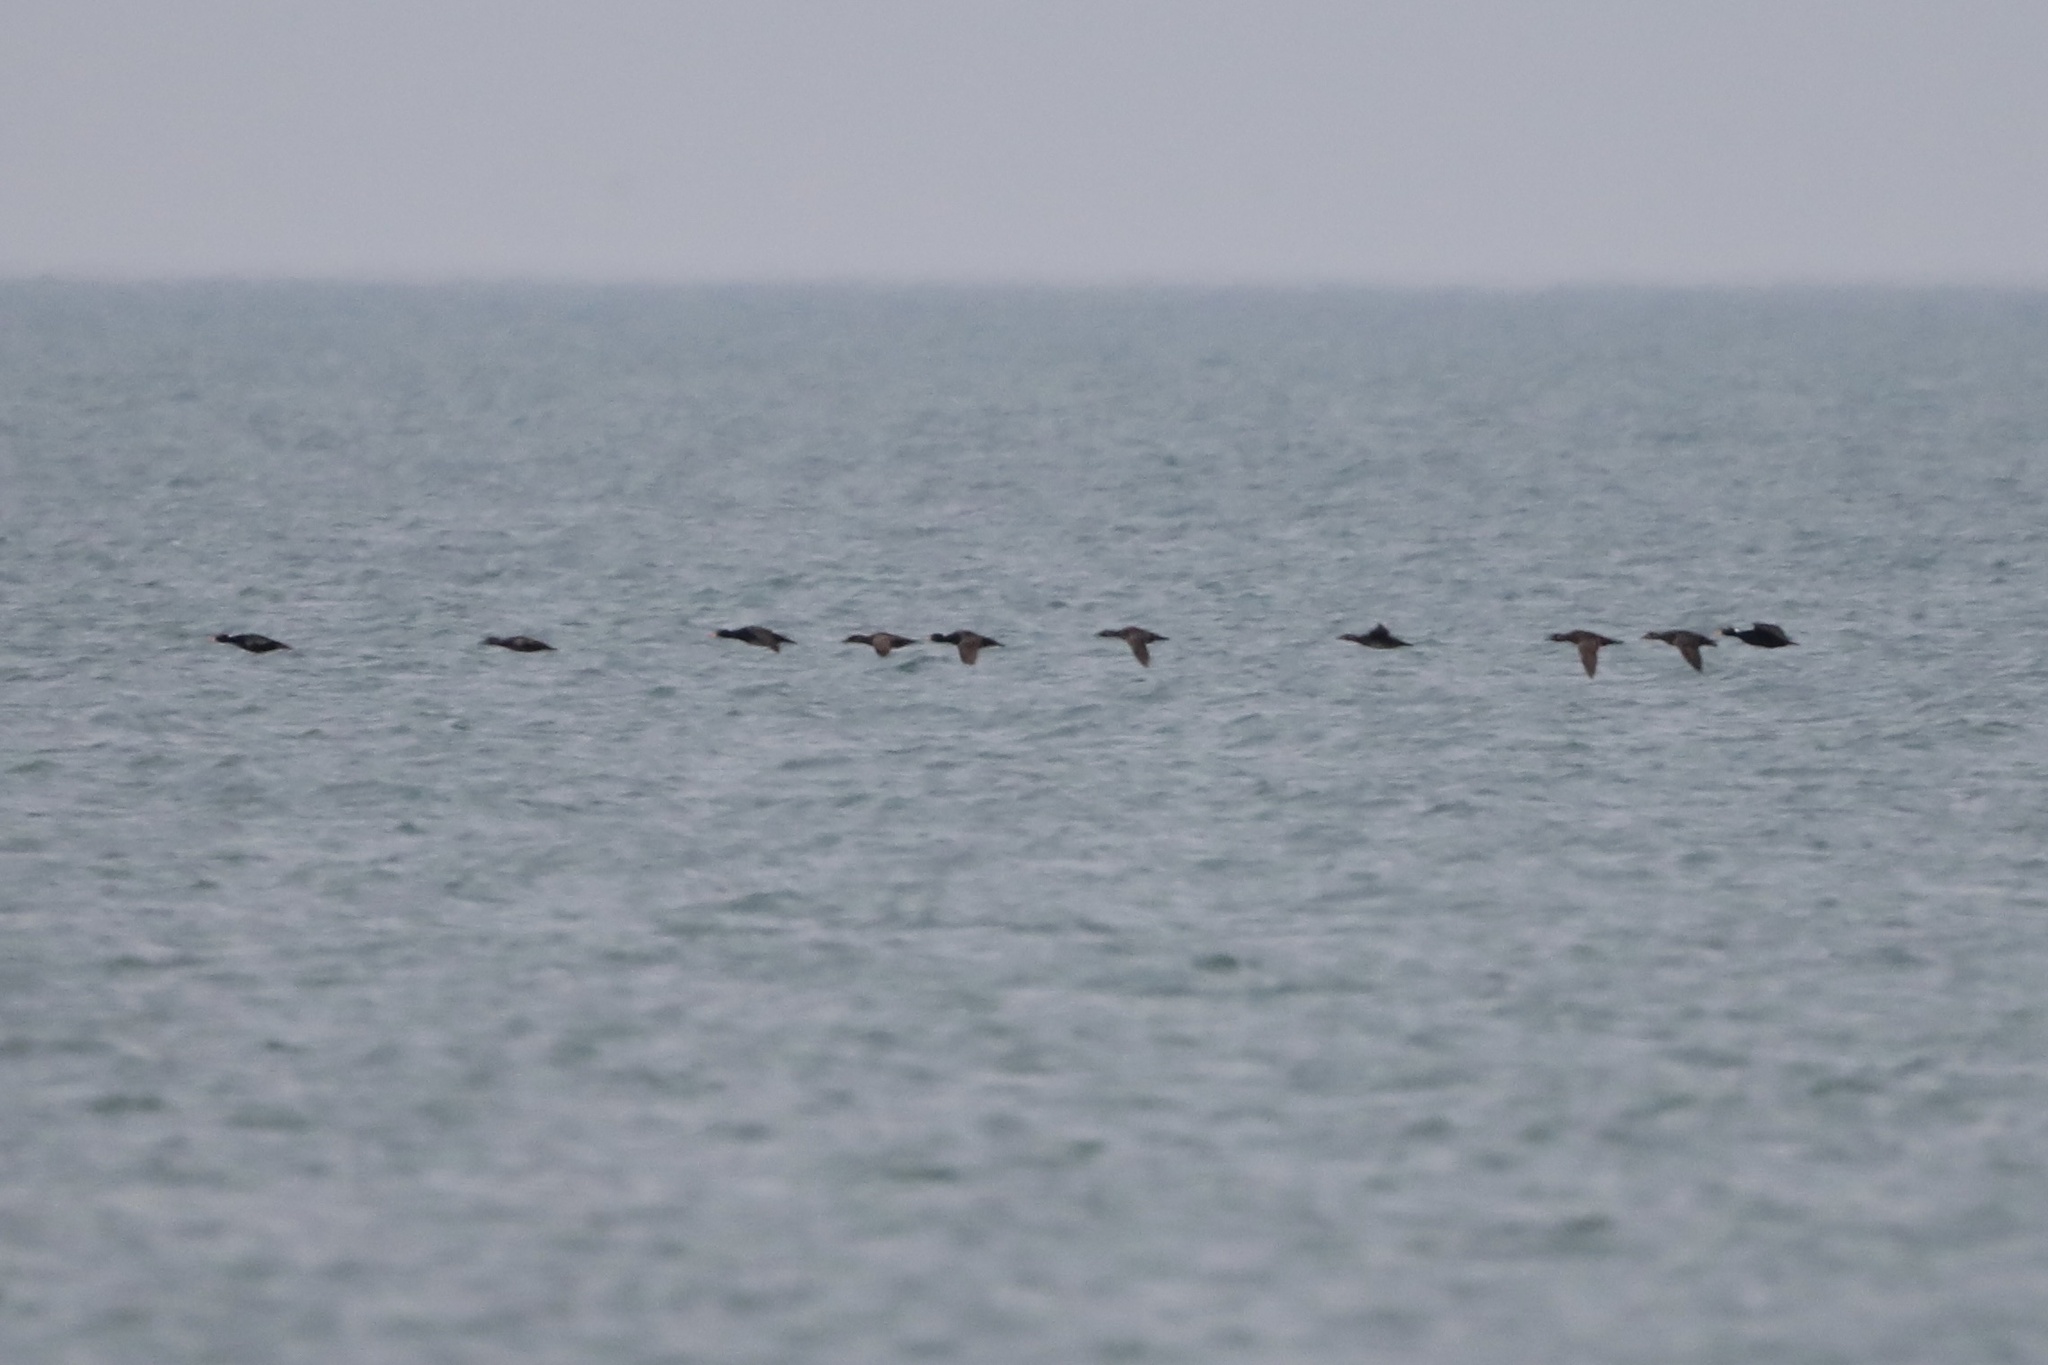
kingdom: Animalia
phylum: Chordata
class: Aves
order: Anseriformes
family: Anatidae
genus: Melanitta
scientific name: Melanitta perspicillata
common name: Surf scoter
